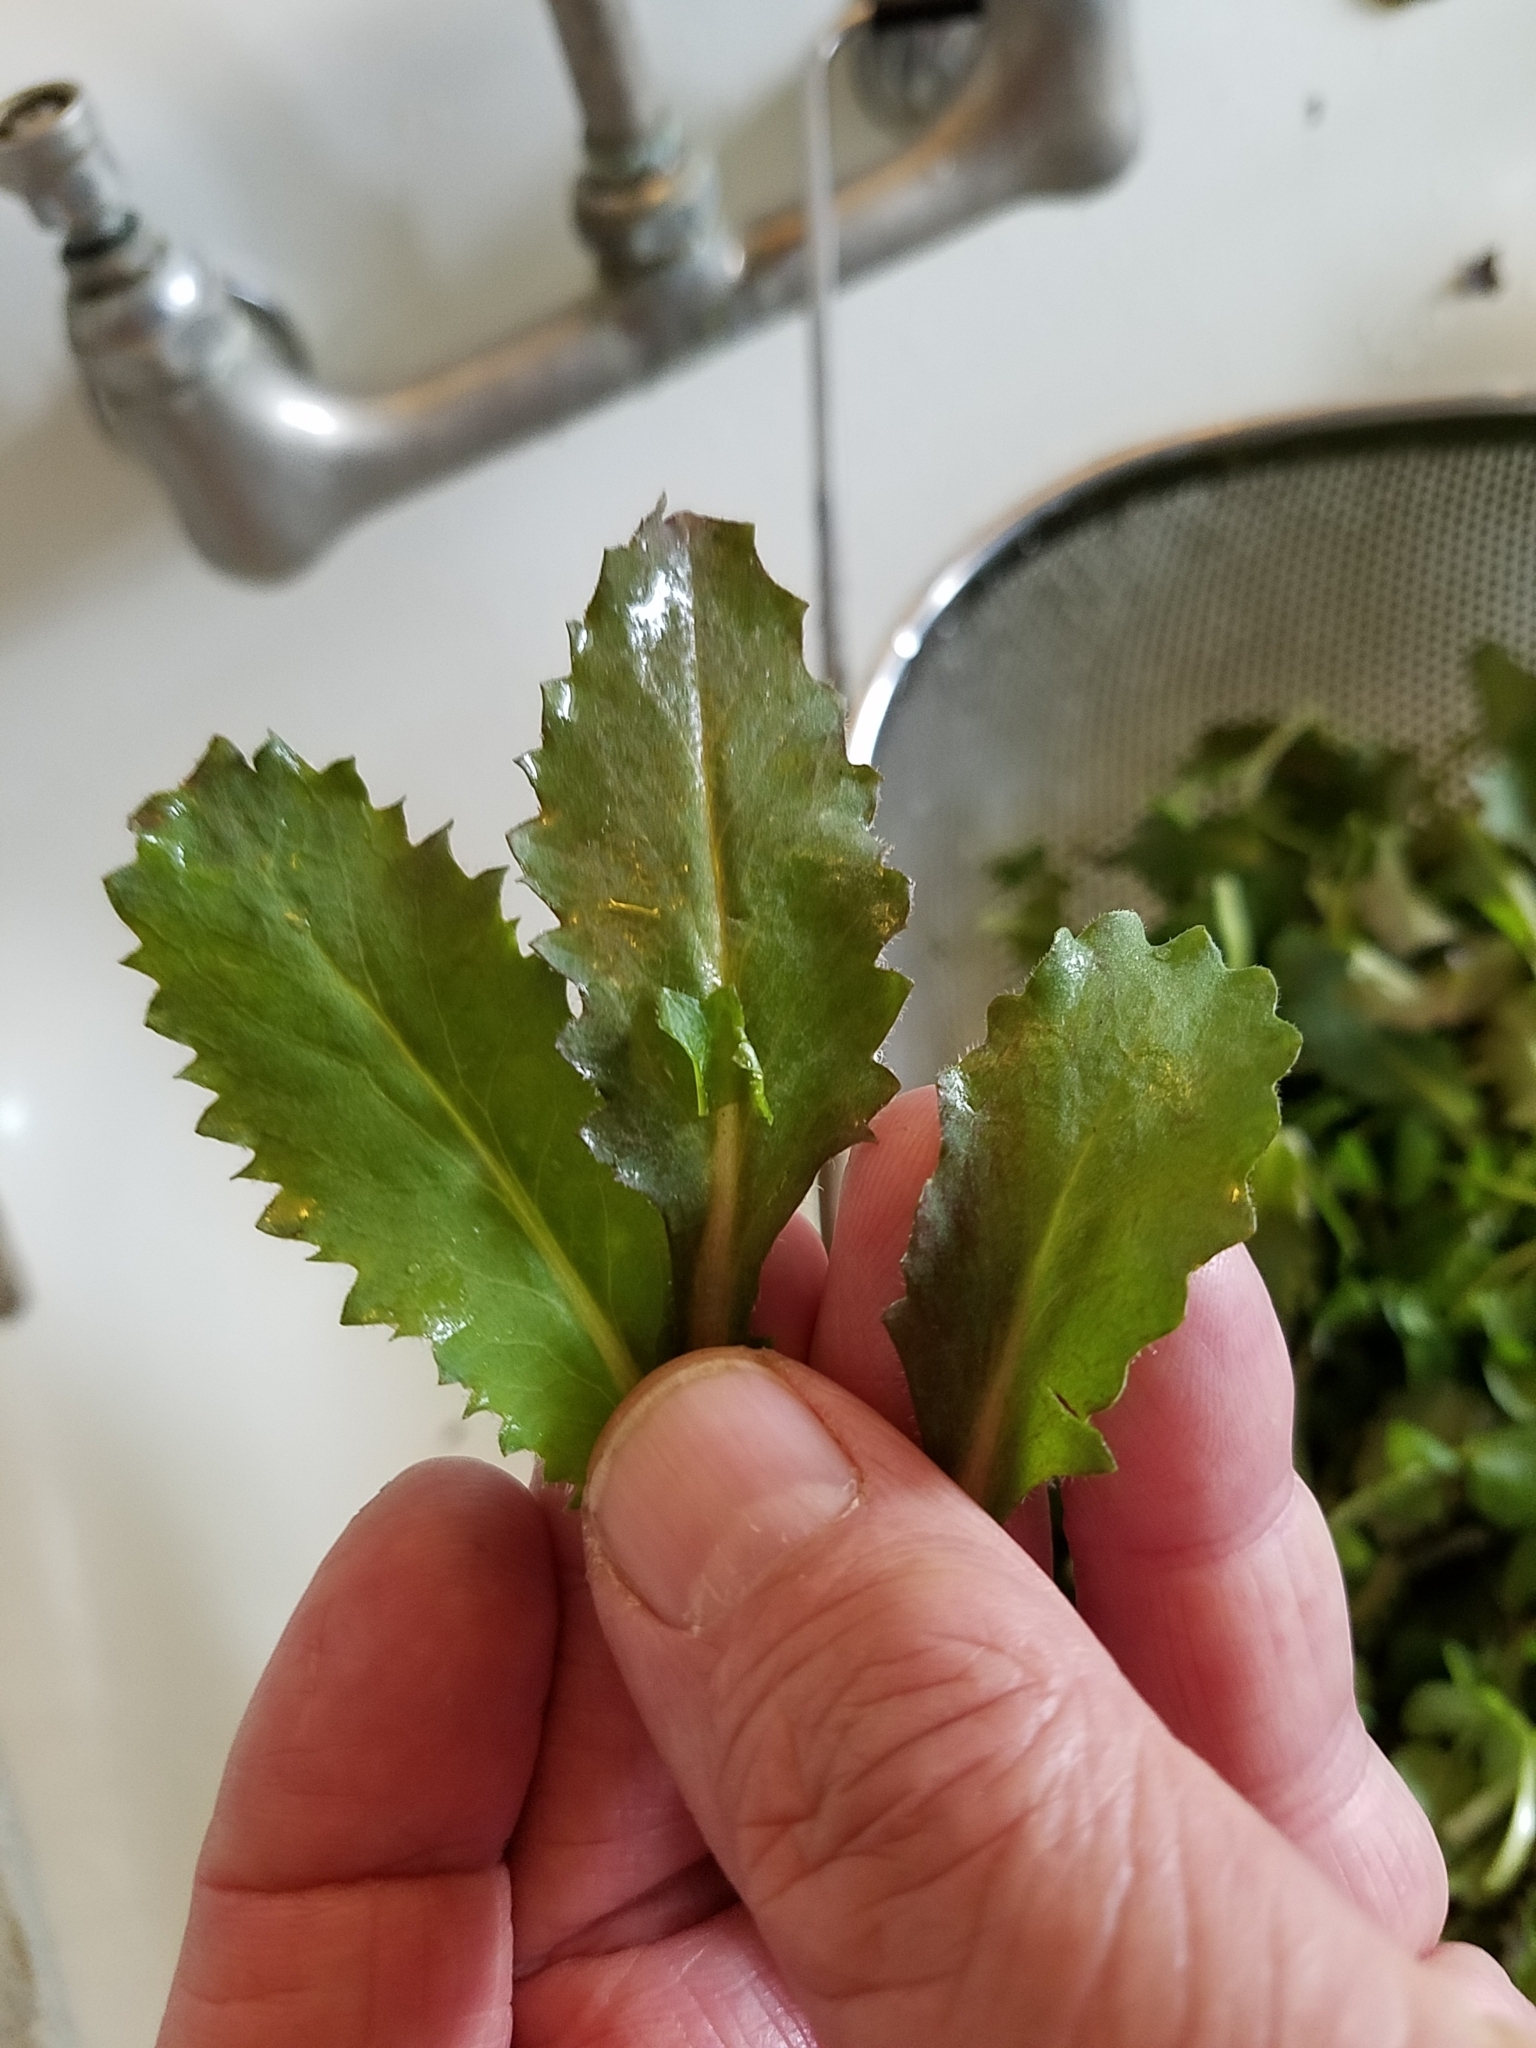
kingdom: Plantae
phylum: Tracheophyta
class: Magnoliopsida
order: Saxifragales
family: Saxifragaceae
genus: Micranthes
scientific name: Micranthes micranthidifolia
